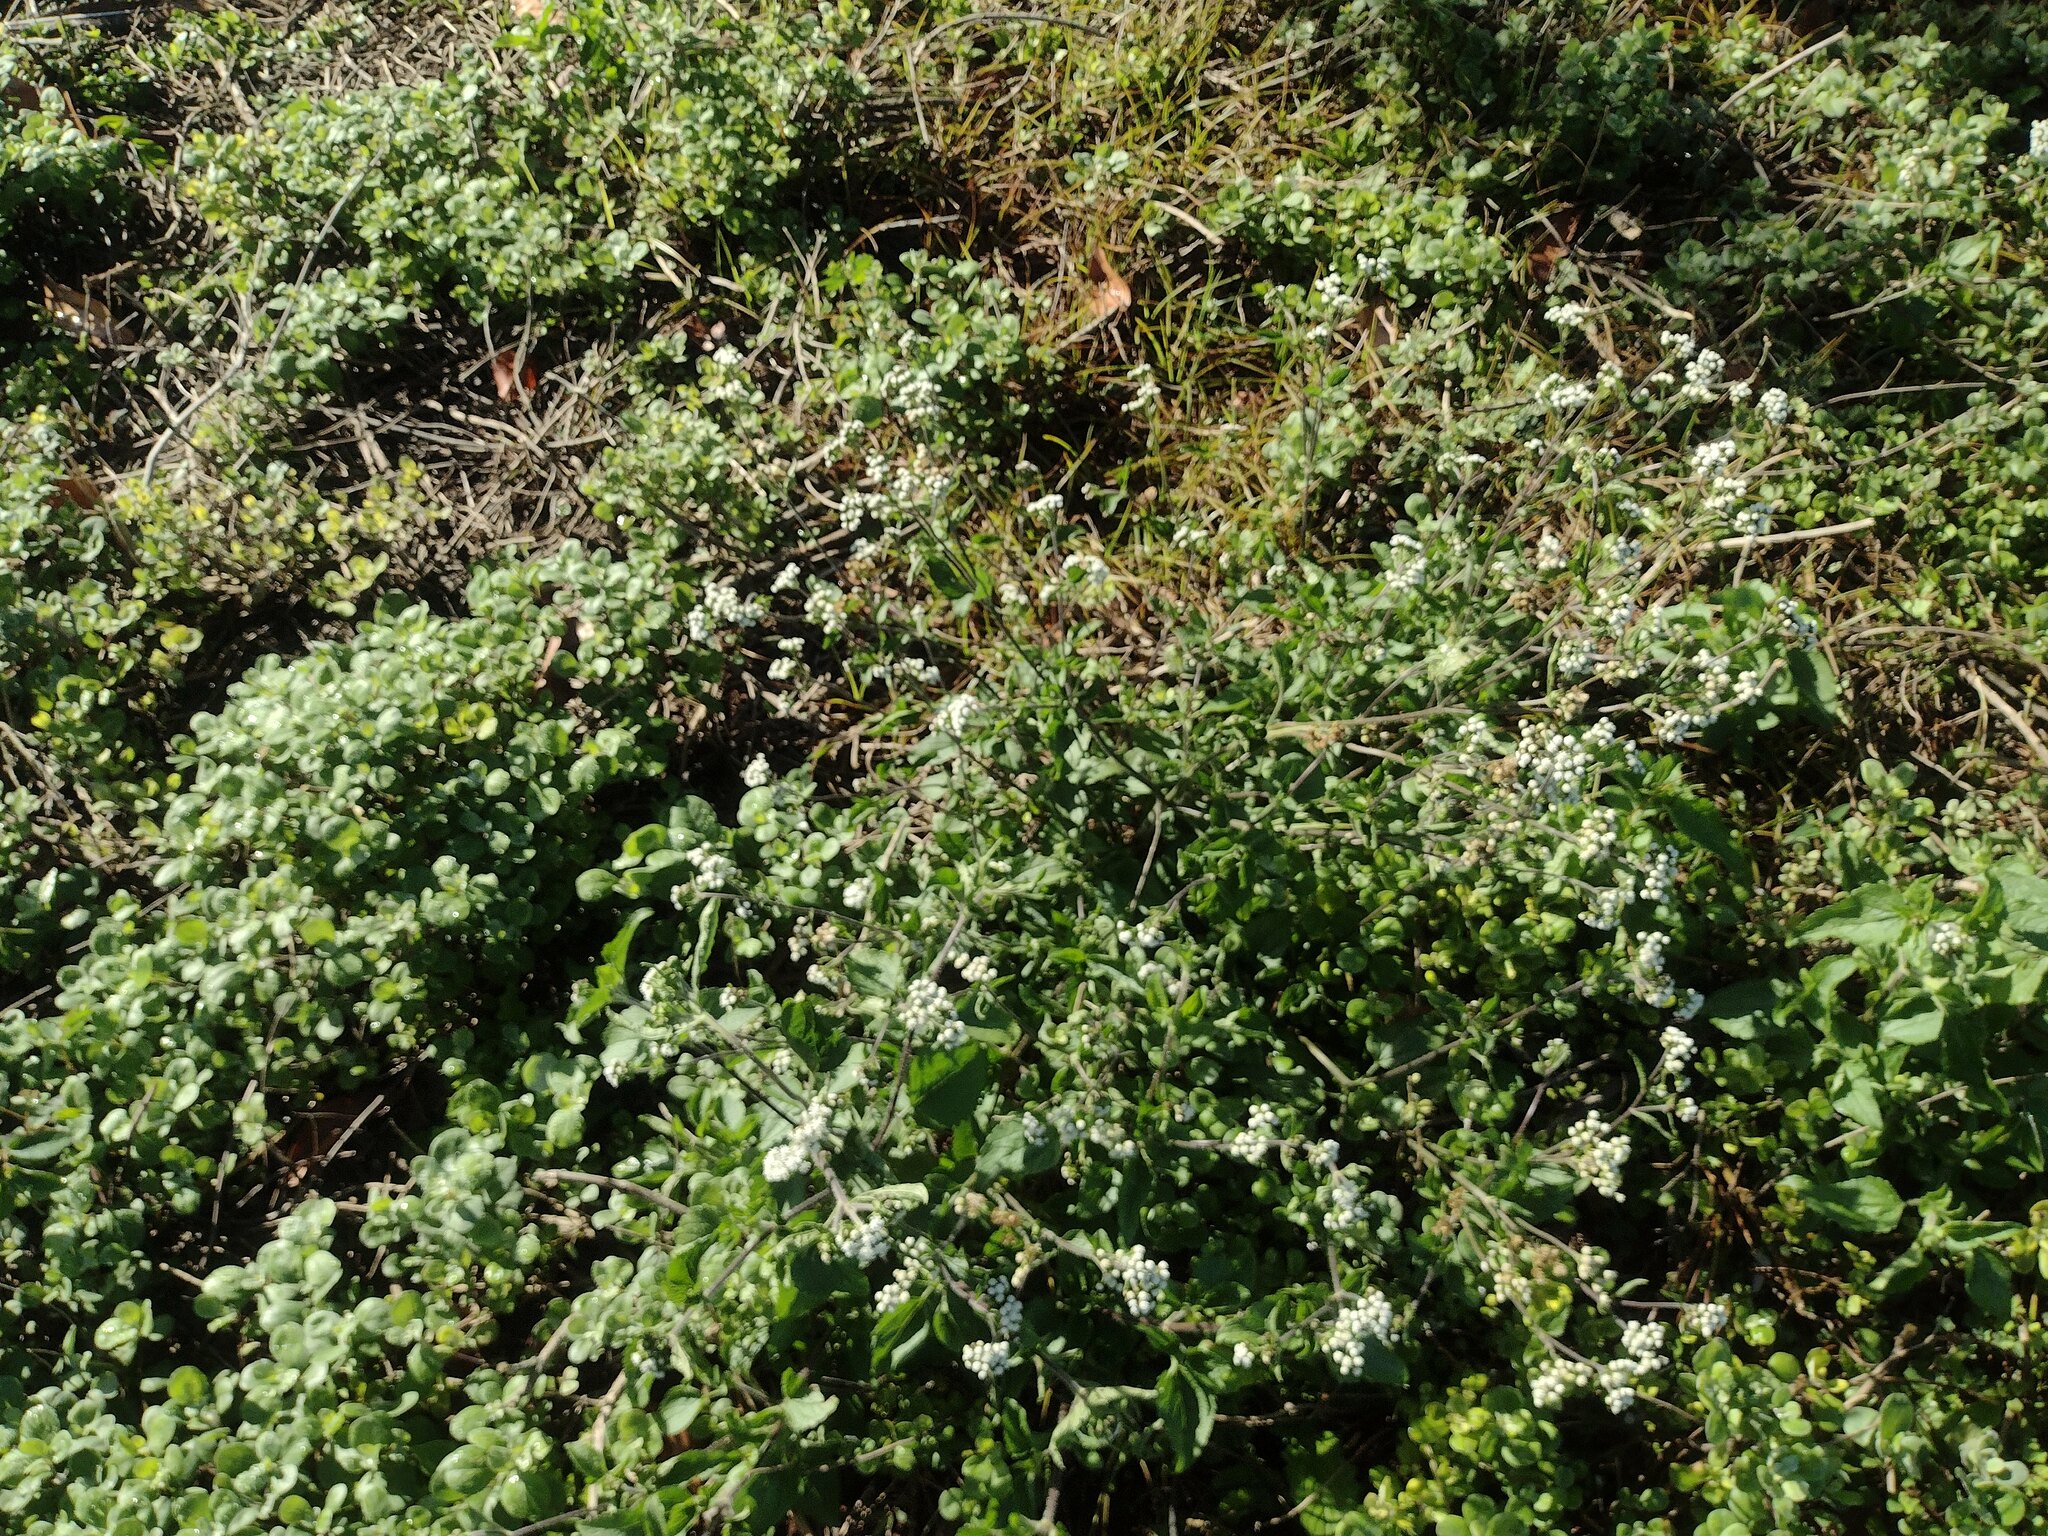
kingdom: Plantae
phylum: Tracheophyta
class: Magnoliopsida
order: Asterales
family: Asteraceae
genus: Ageratum
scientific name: Ageratum conyzoides
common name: Tropical whiteweed
